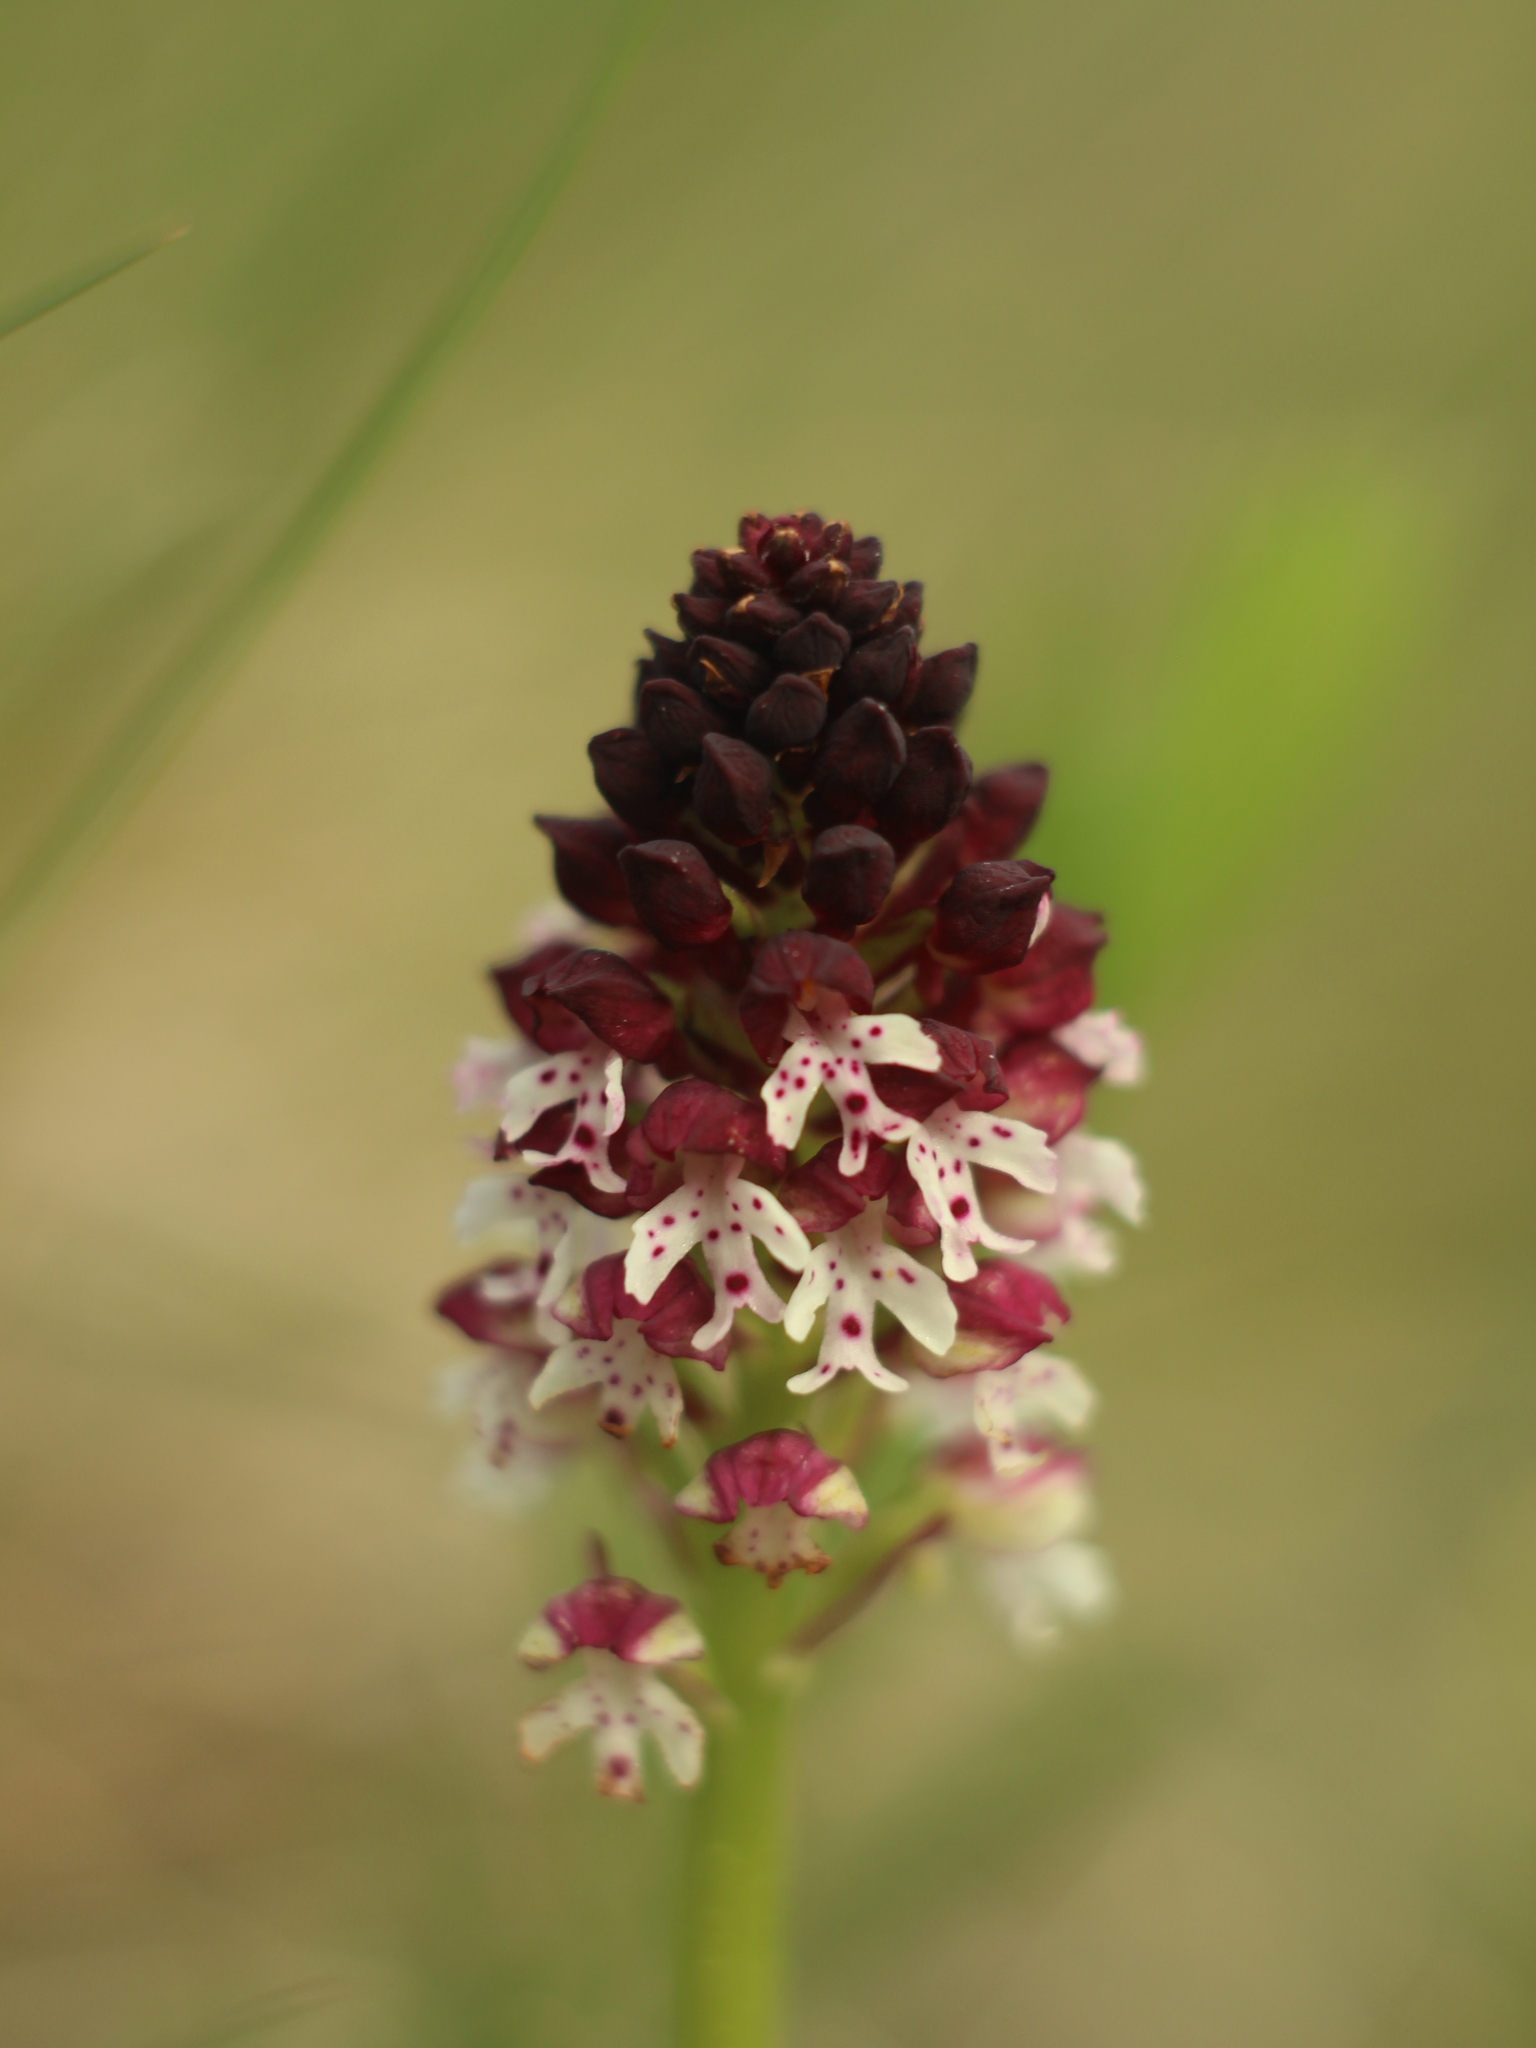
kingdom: Plantae
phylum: Tracheophyta
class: Liliopsida
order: Asparagales
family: Orchidaceae
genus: Neotinea
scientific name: Neotinea ustulata
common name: Burnt orchid
